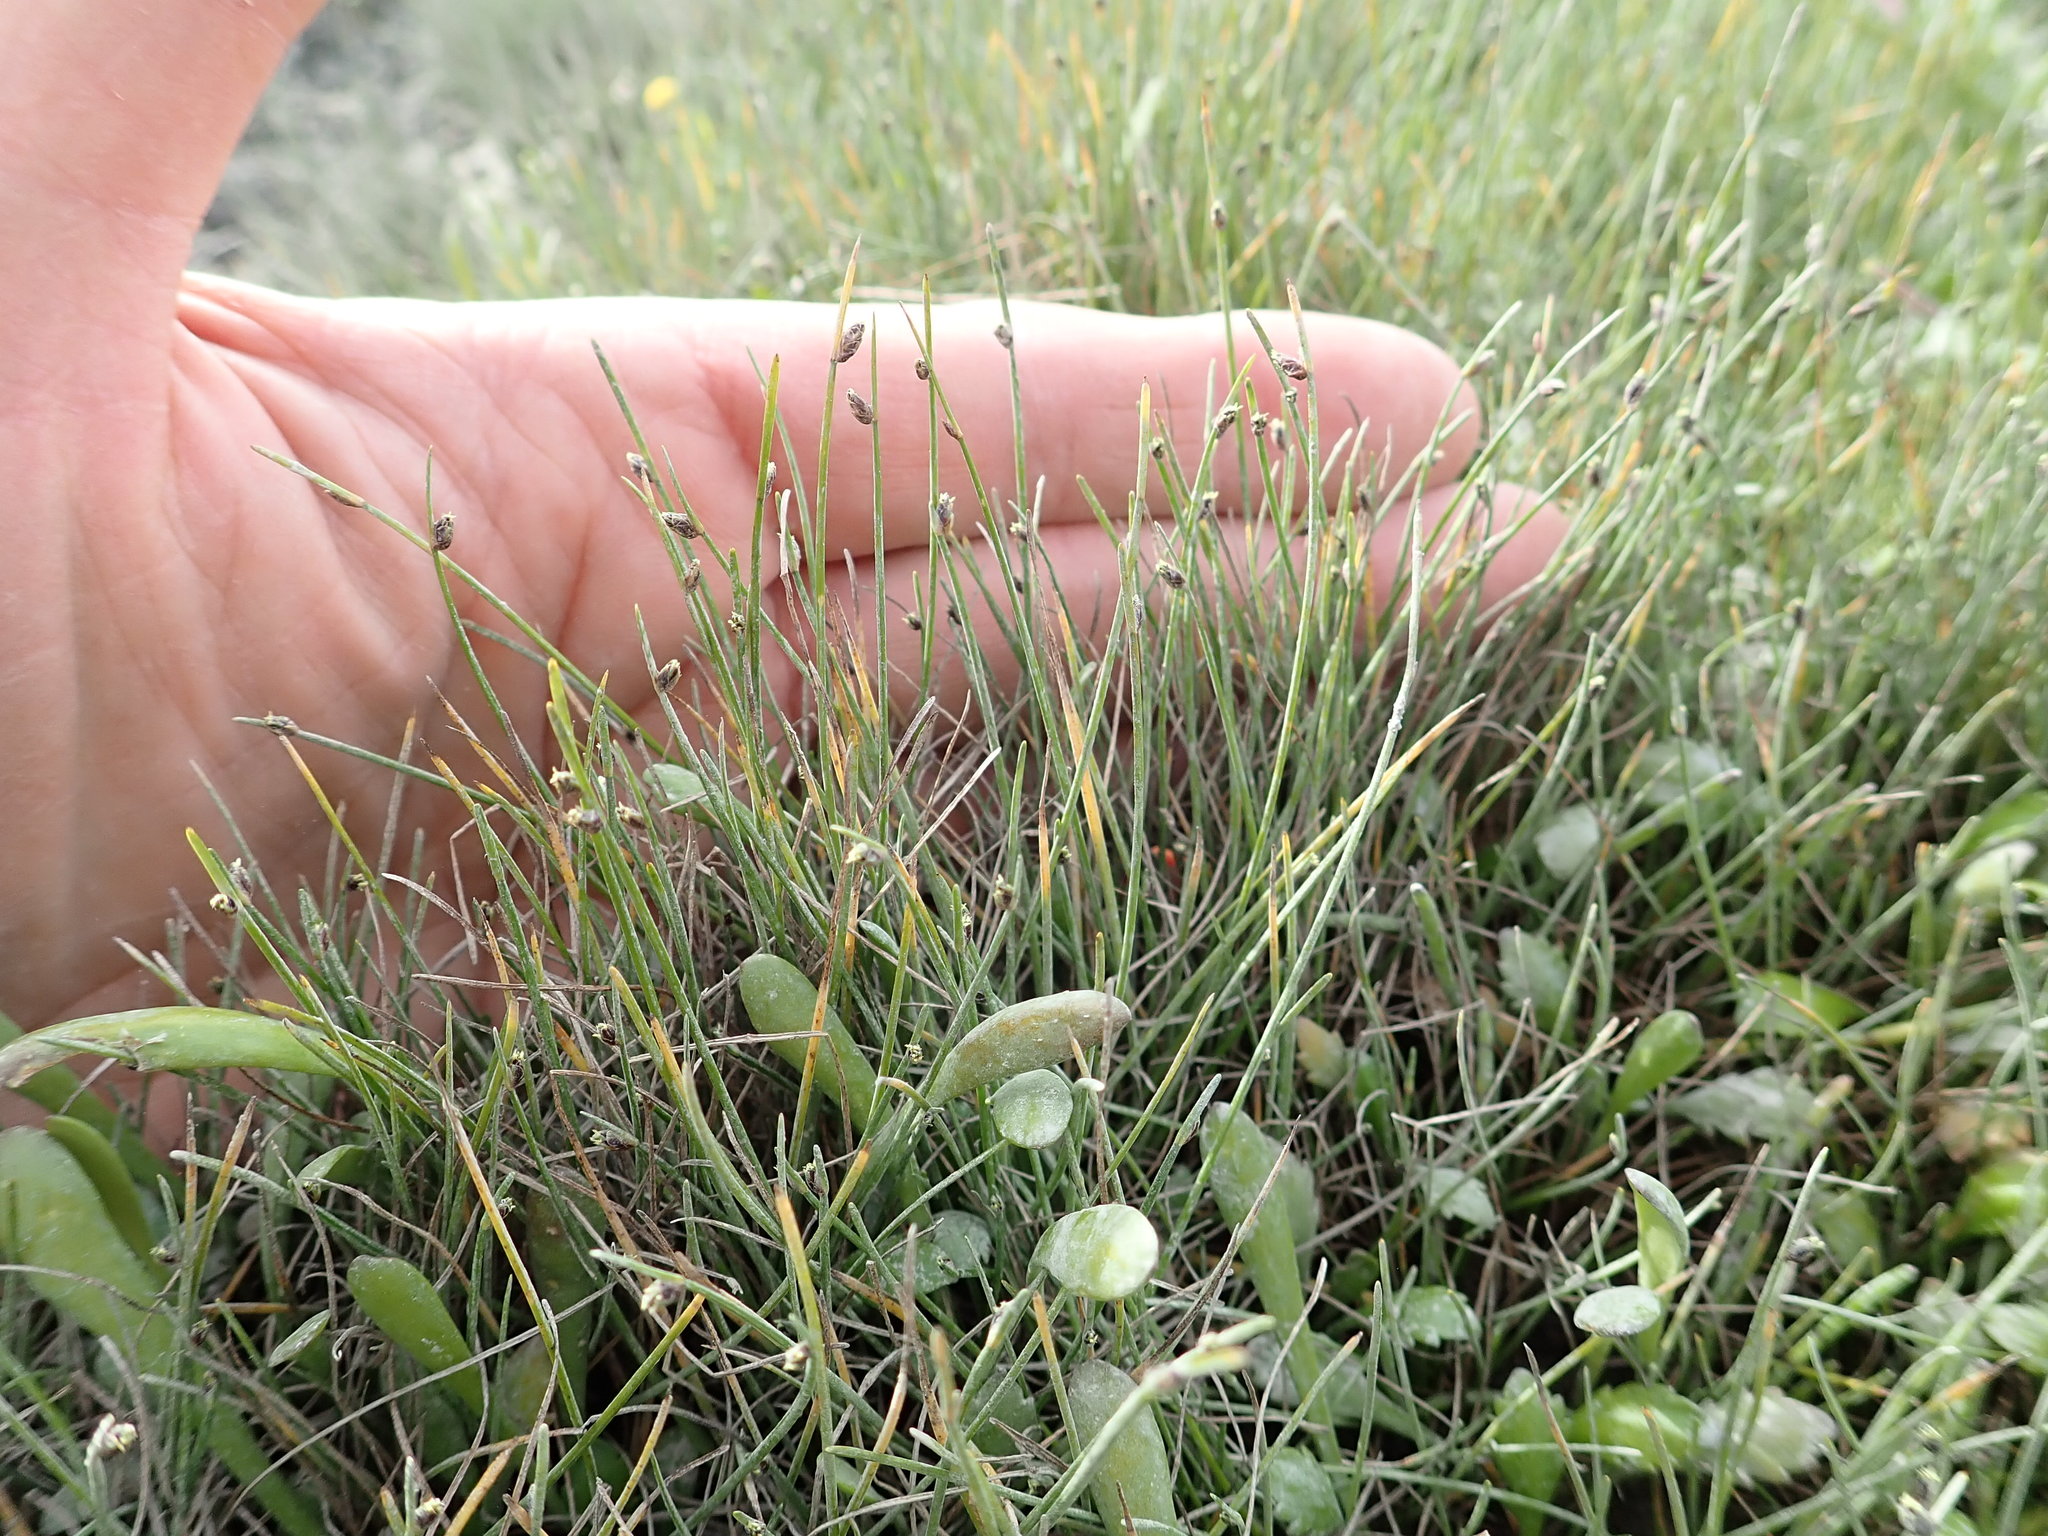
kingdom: Plantae
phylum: Tracheophyta
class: Liliopsida
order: Poales
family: Cyperaceae
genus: Isolepis
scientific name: Isolepis cernua
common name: Slender club-rush
